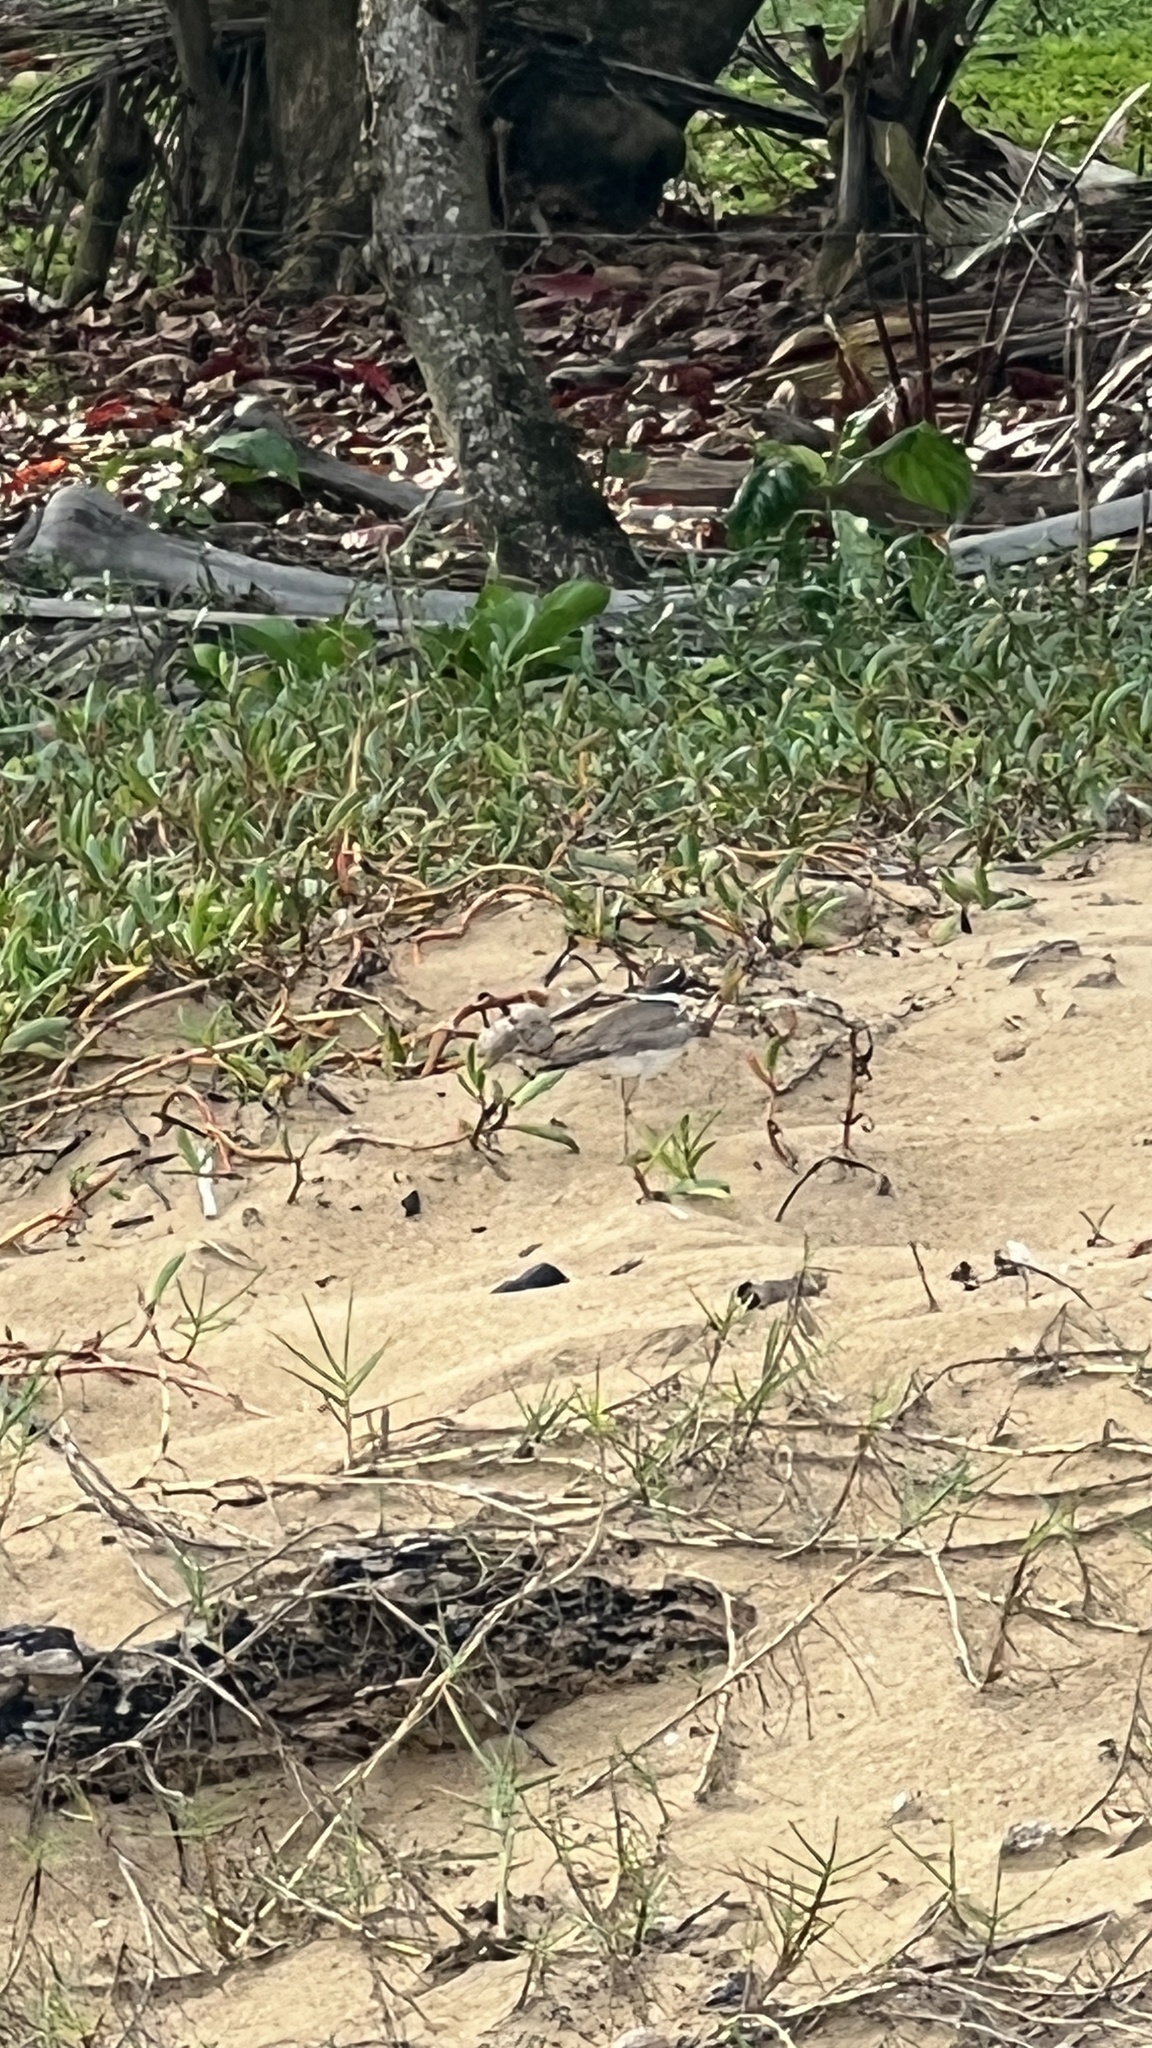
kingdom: Animalia
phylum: Chordata
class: Aves
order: Charadriiformes
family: Charadriidae
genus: Charadrius
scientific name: Charadrius vociferus
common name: Killdeer
